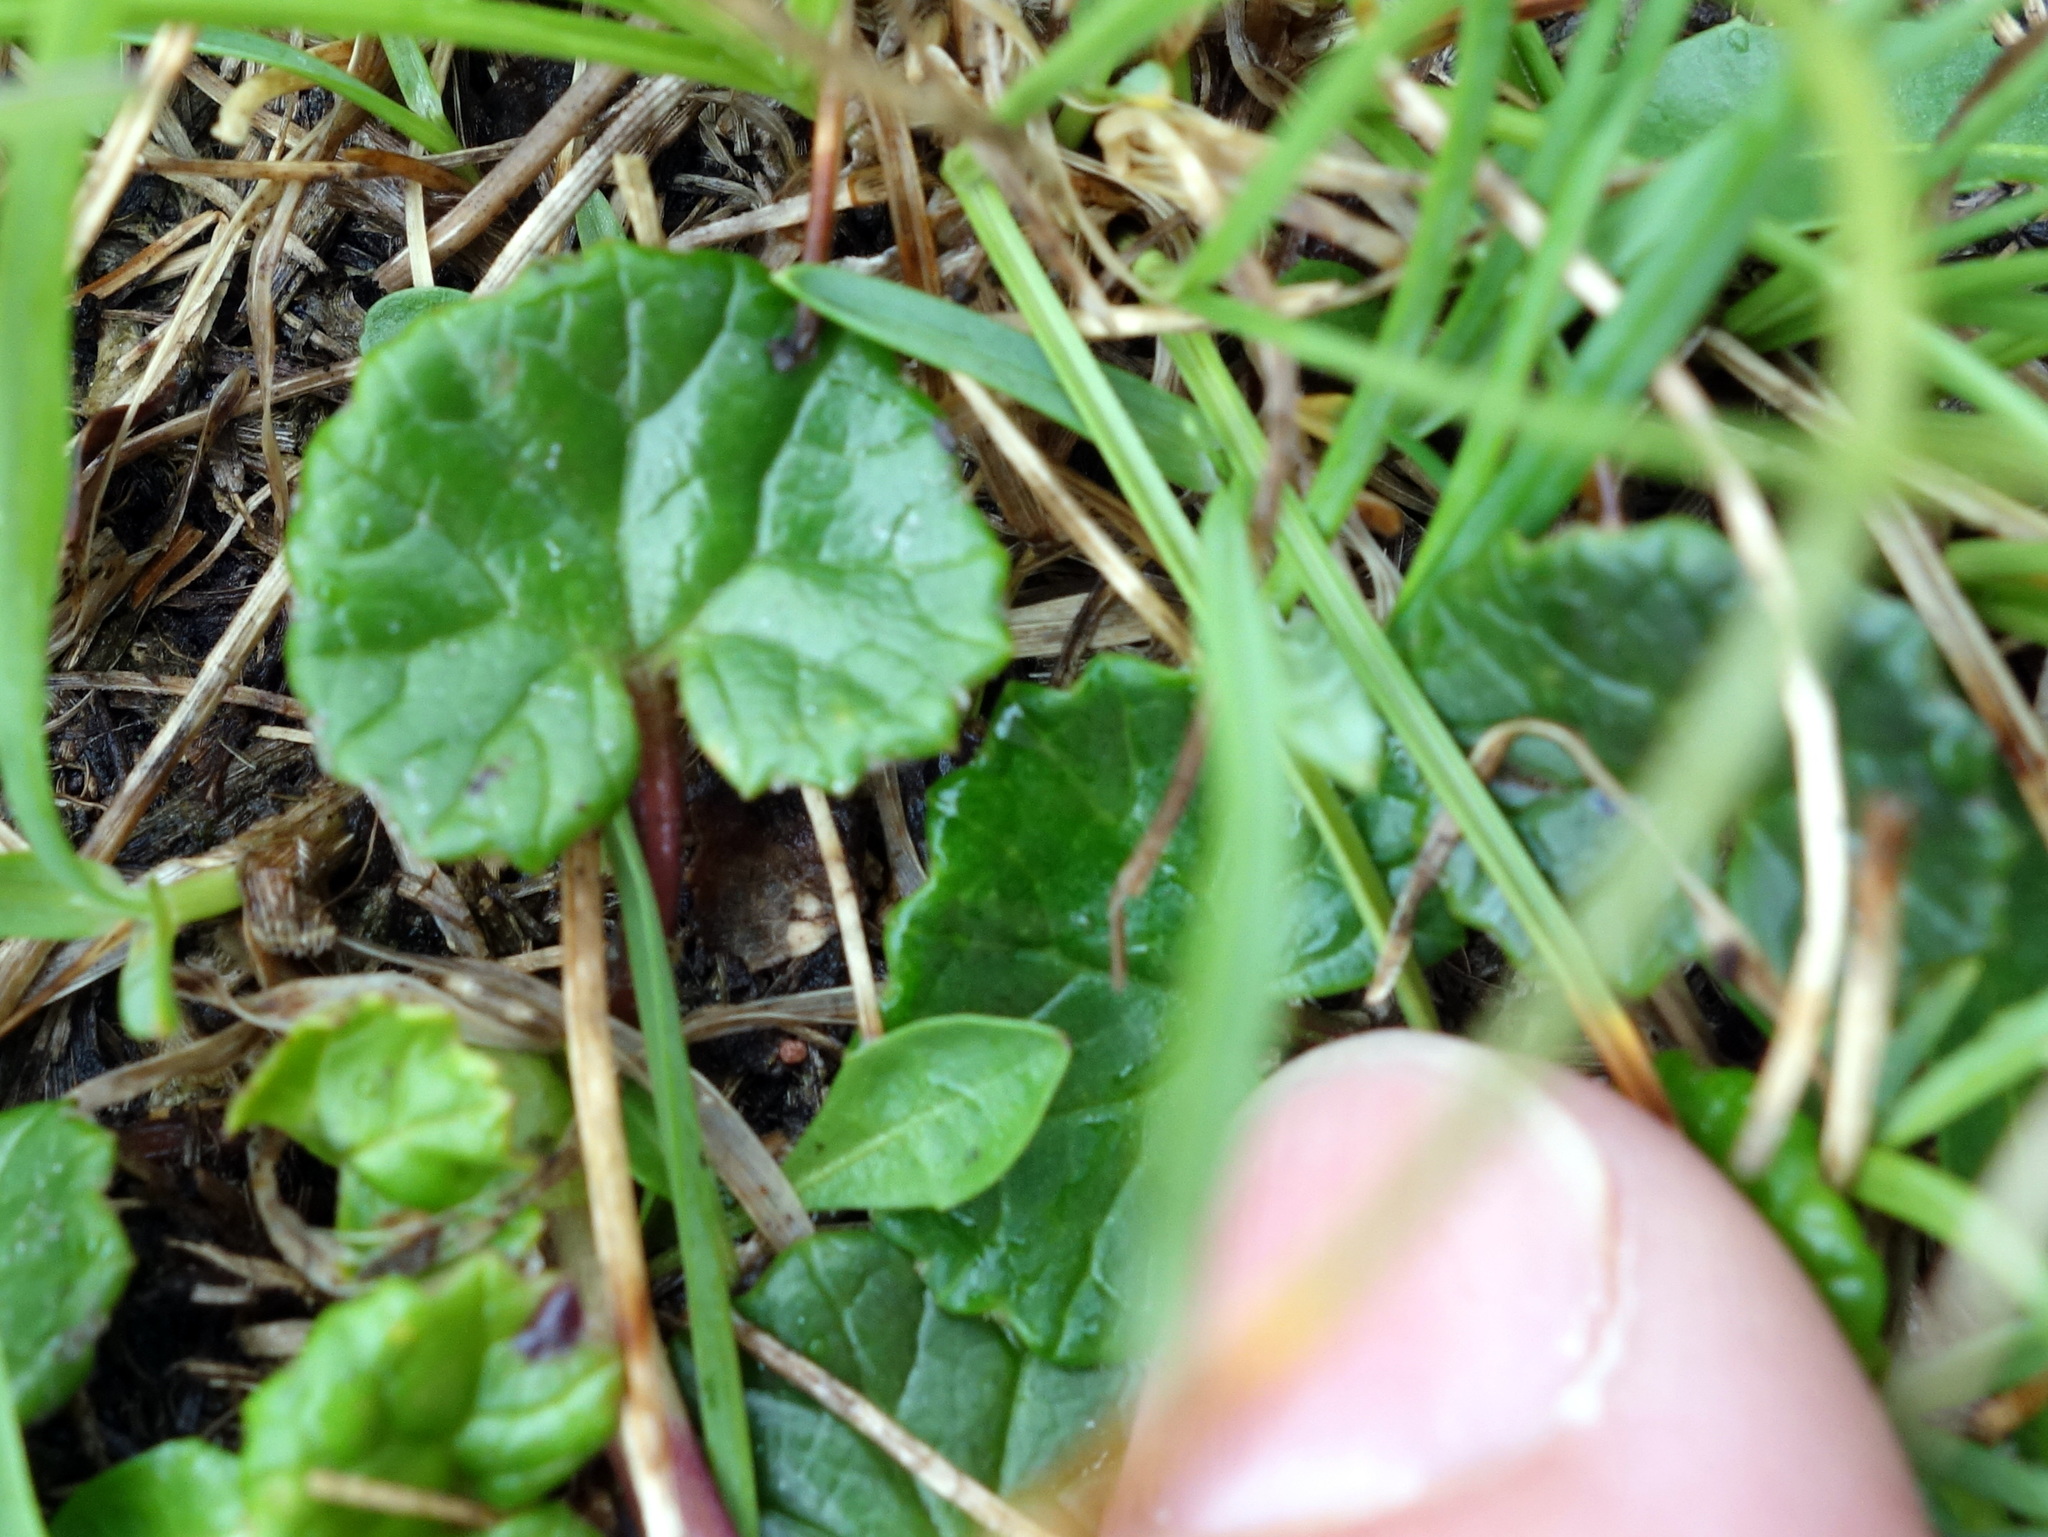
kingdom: Plantae
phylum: Tracheophyta
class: Magnoliopsida
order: Asterales
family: Asteraceae
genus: Homogyne
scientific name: Homogyne alpina
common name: Purple colt's-foot
